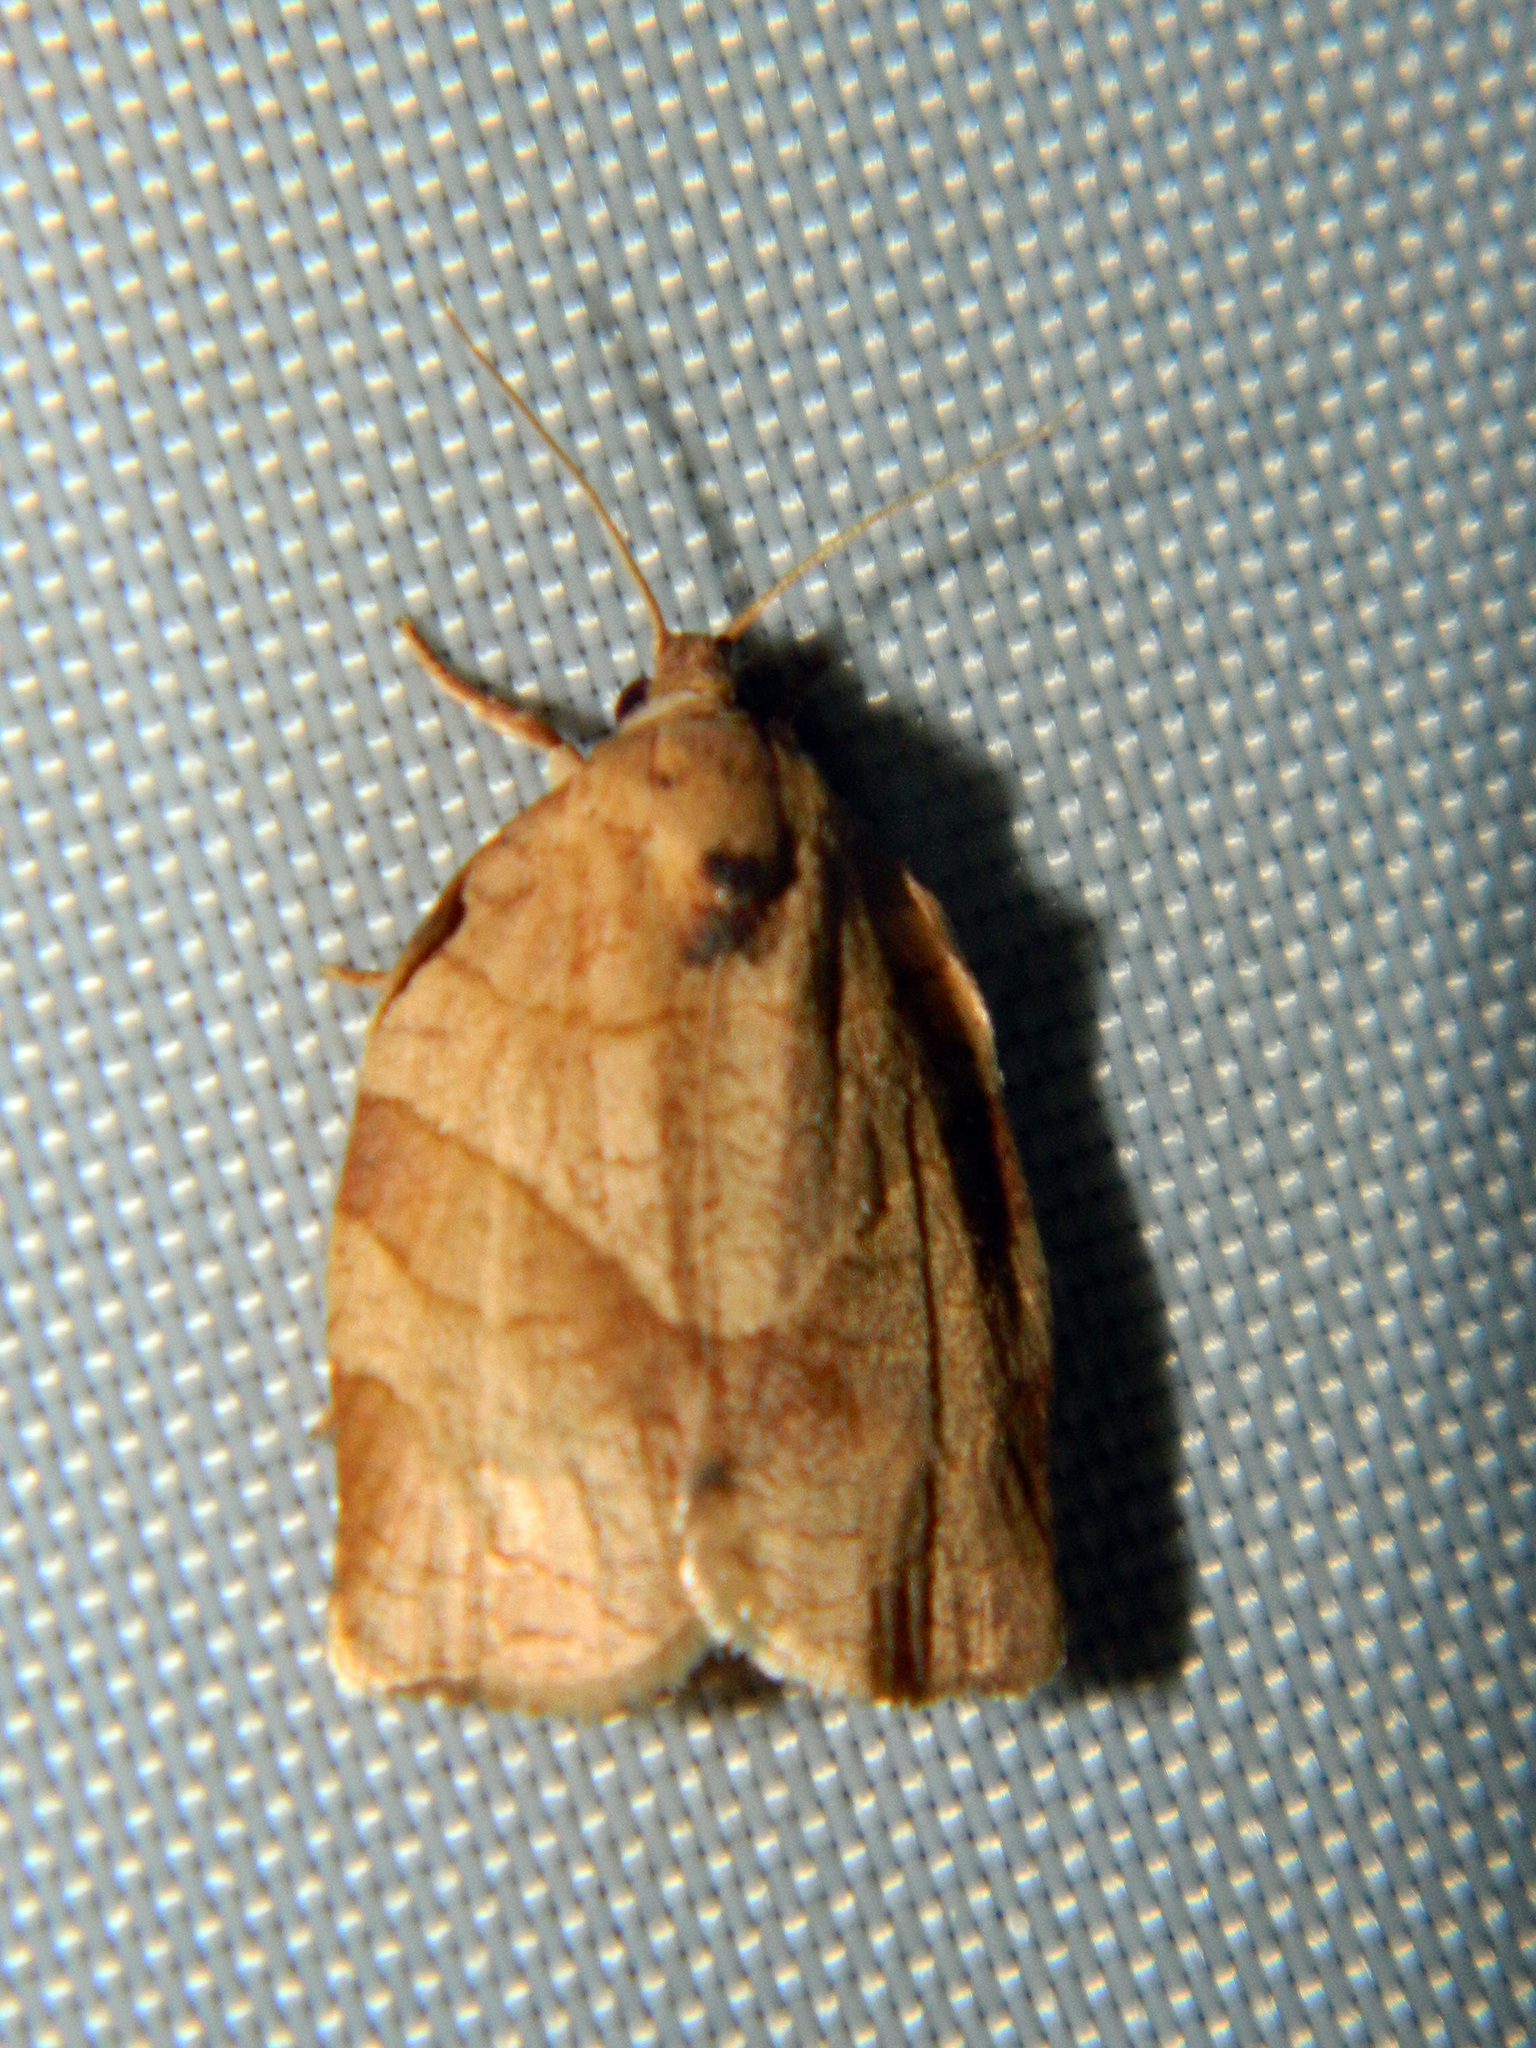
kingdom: Animalia
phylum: Arthropoda
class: Insecta
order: Lepidoptera
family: Tortricidae
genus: Choristoneura
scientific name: Choristoneura rosaceana
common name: Oblique-banded leafroller moth
